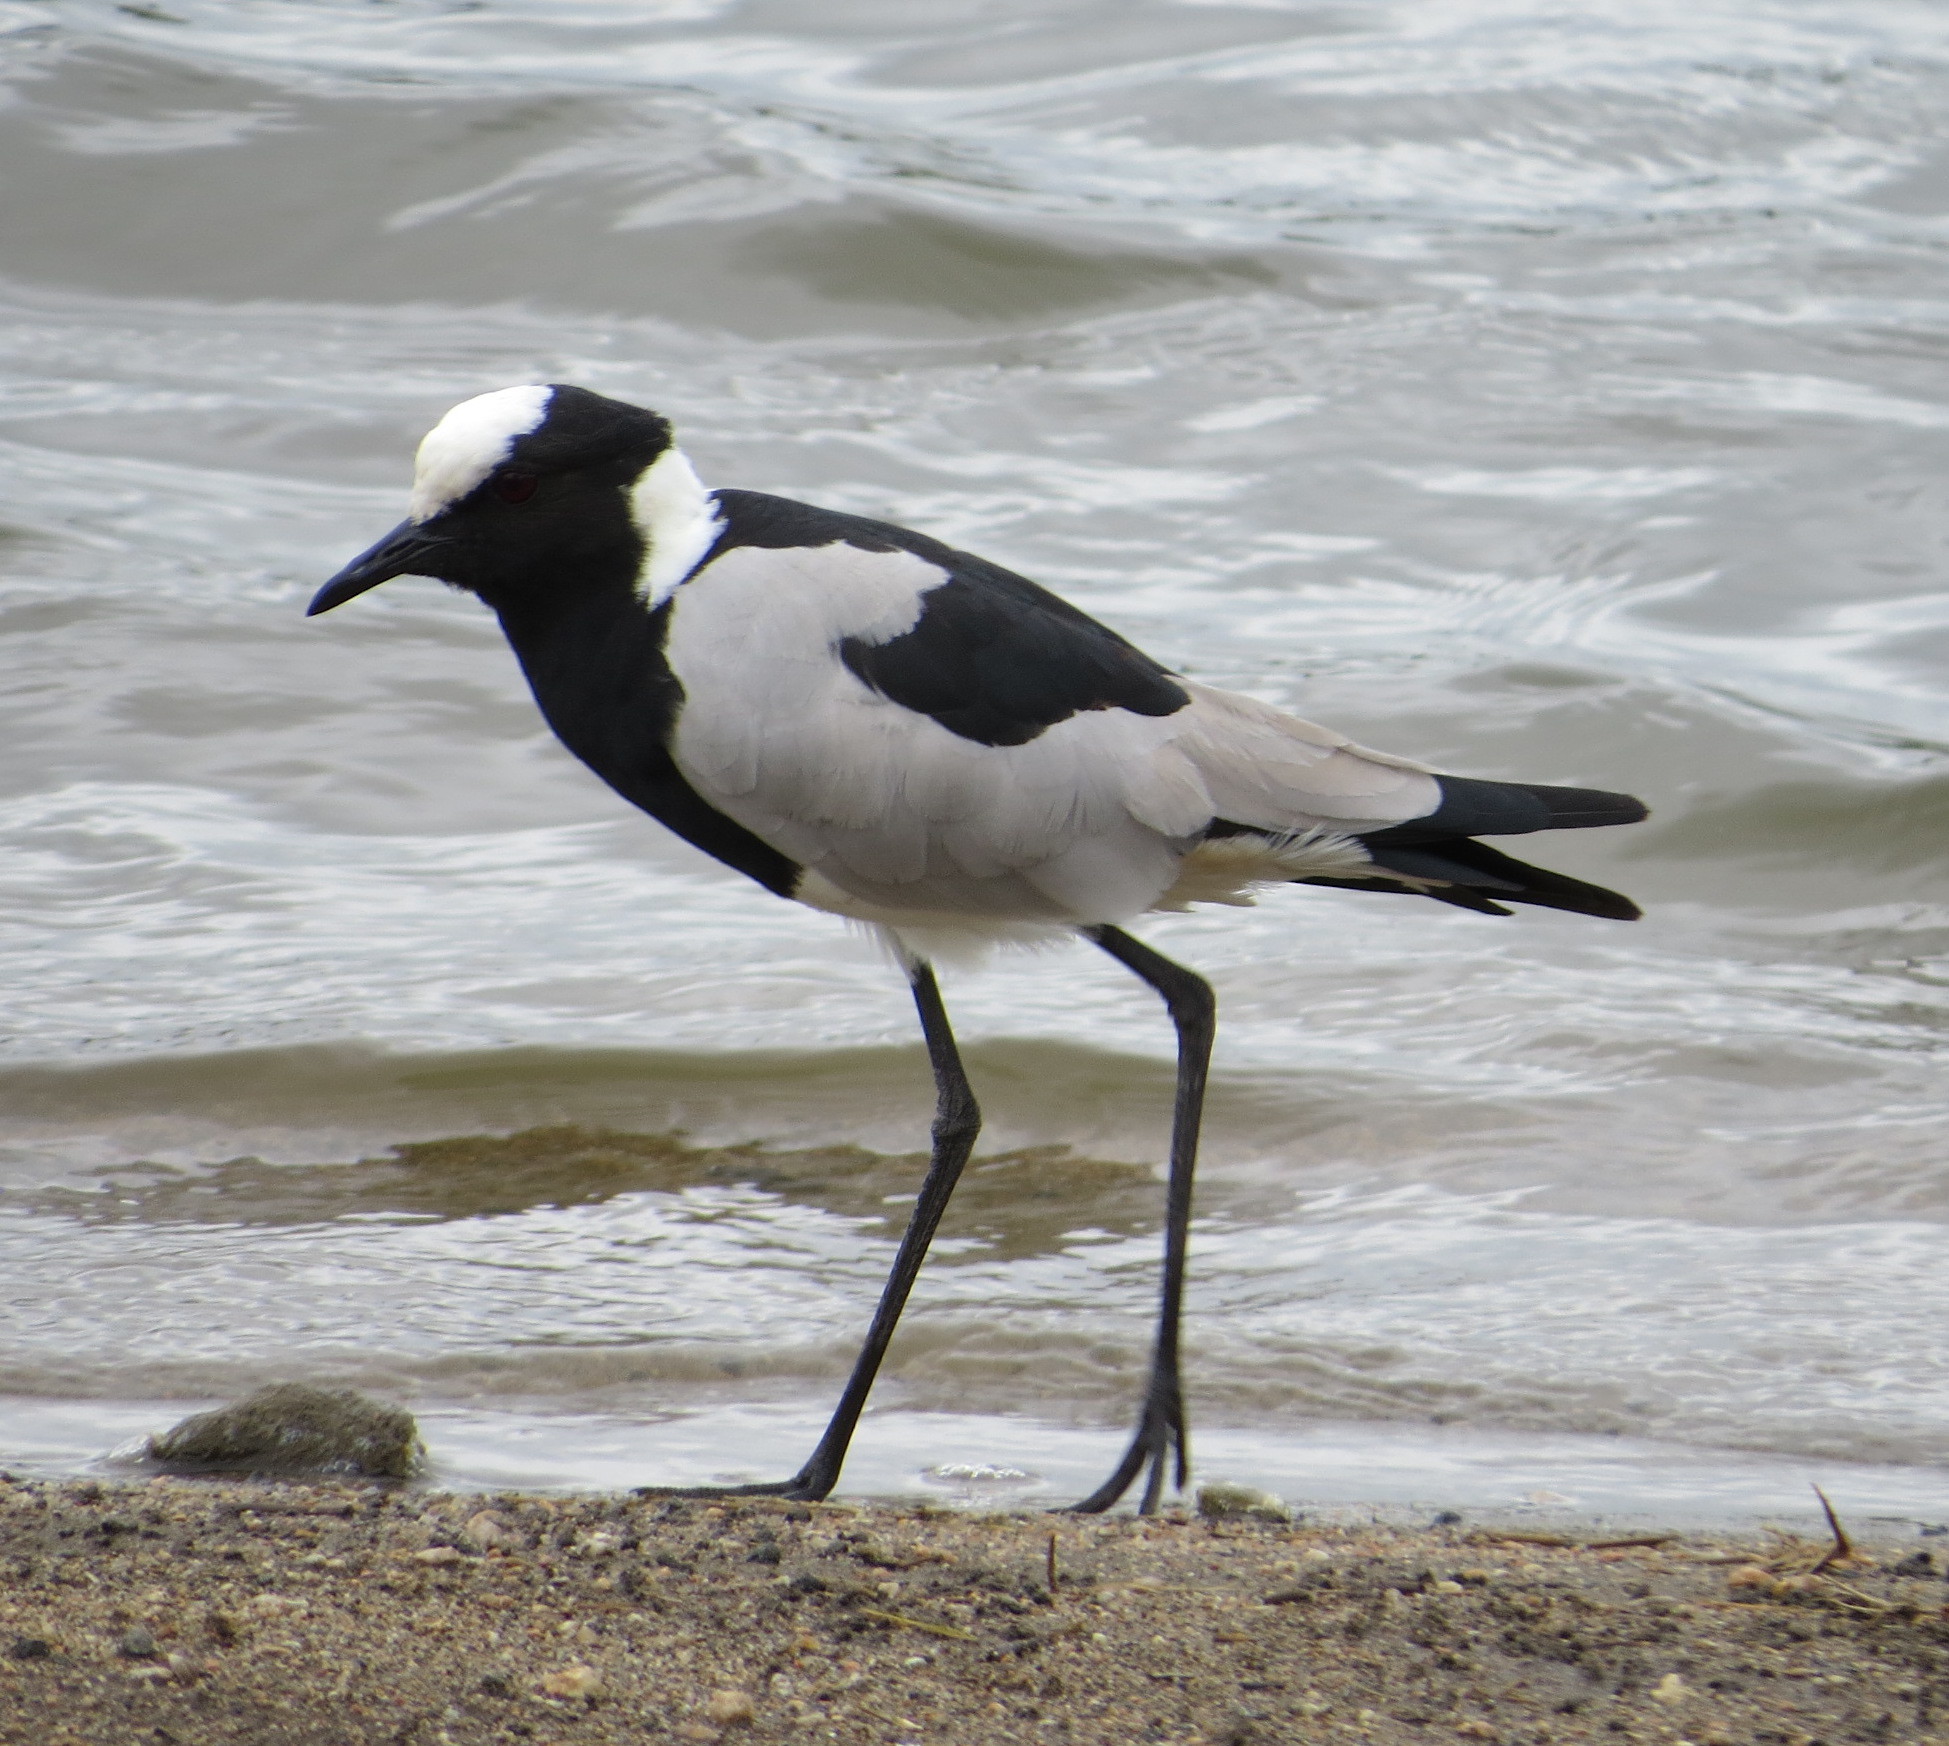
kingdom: Animalia
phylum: Chordata
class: Aves
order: Charadriiformes
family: Charadriidae
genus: Vanellus
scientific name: Vanellus armatus
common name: Blacksmith lapwing
